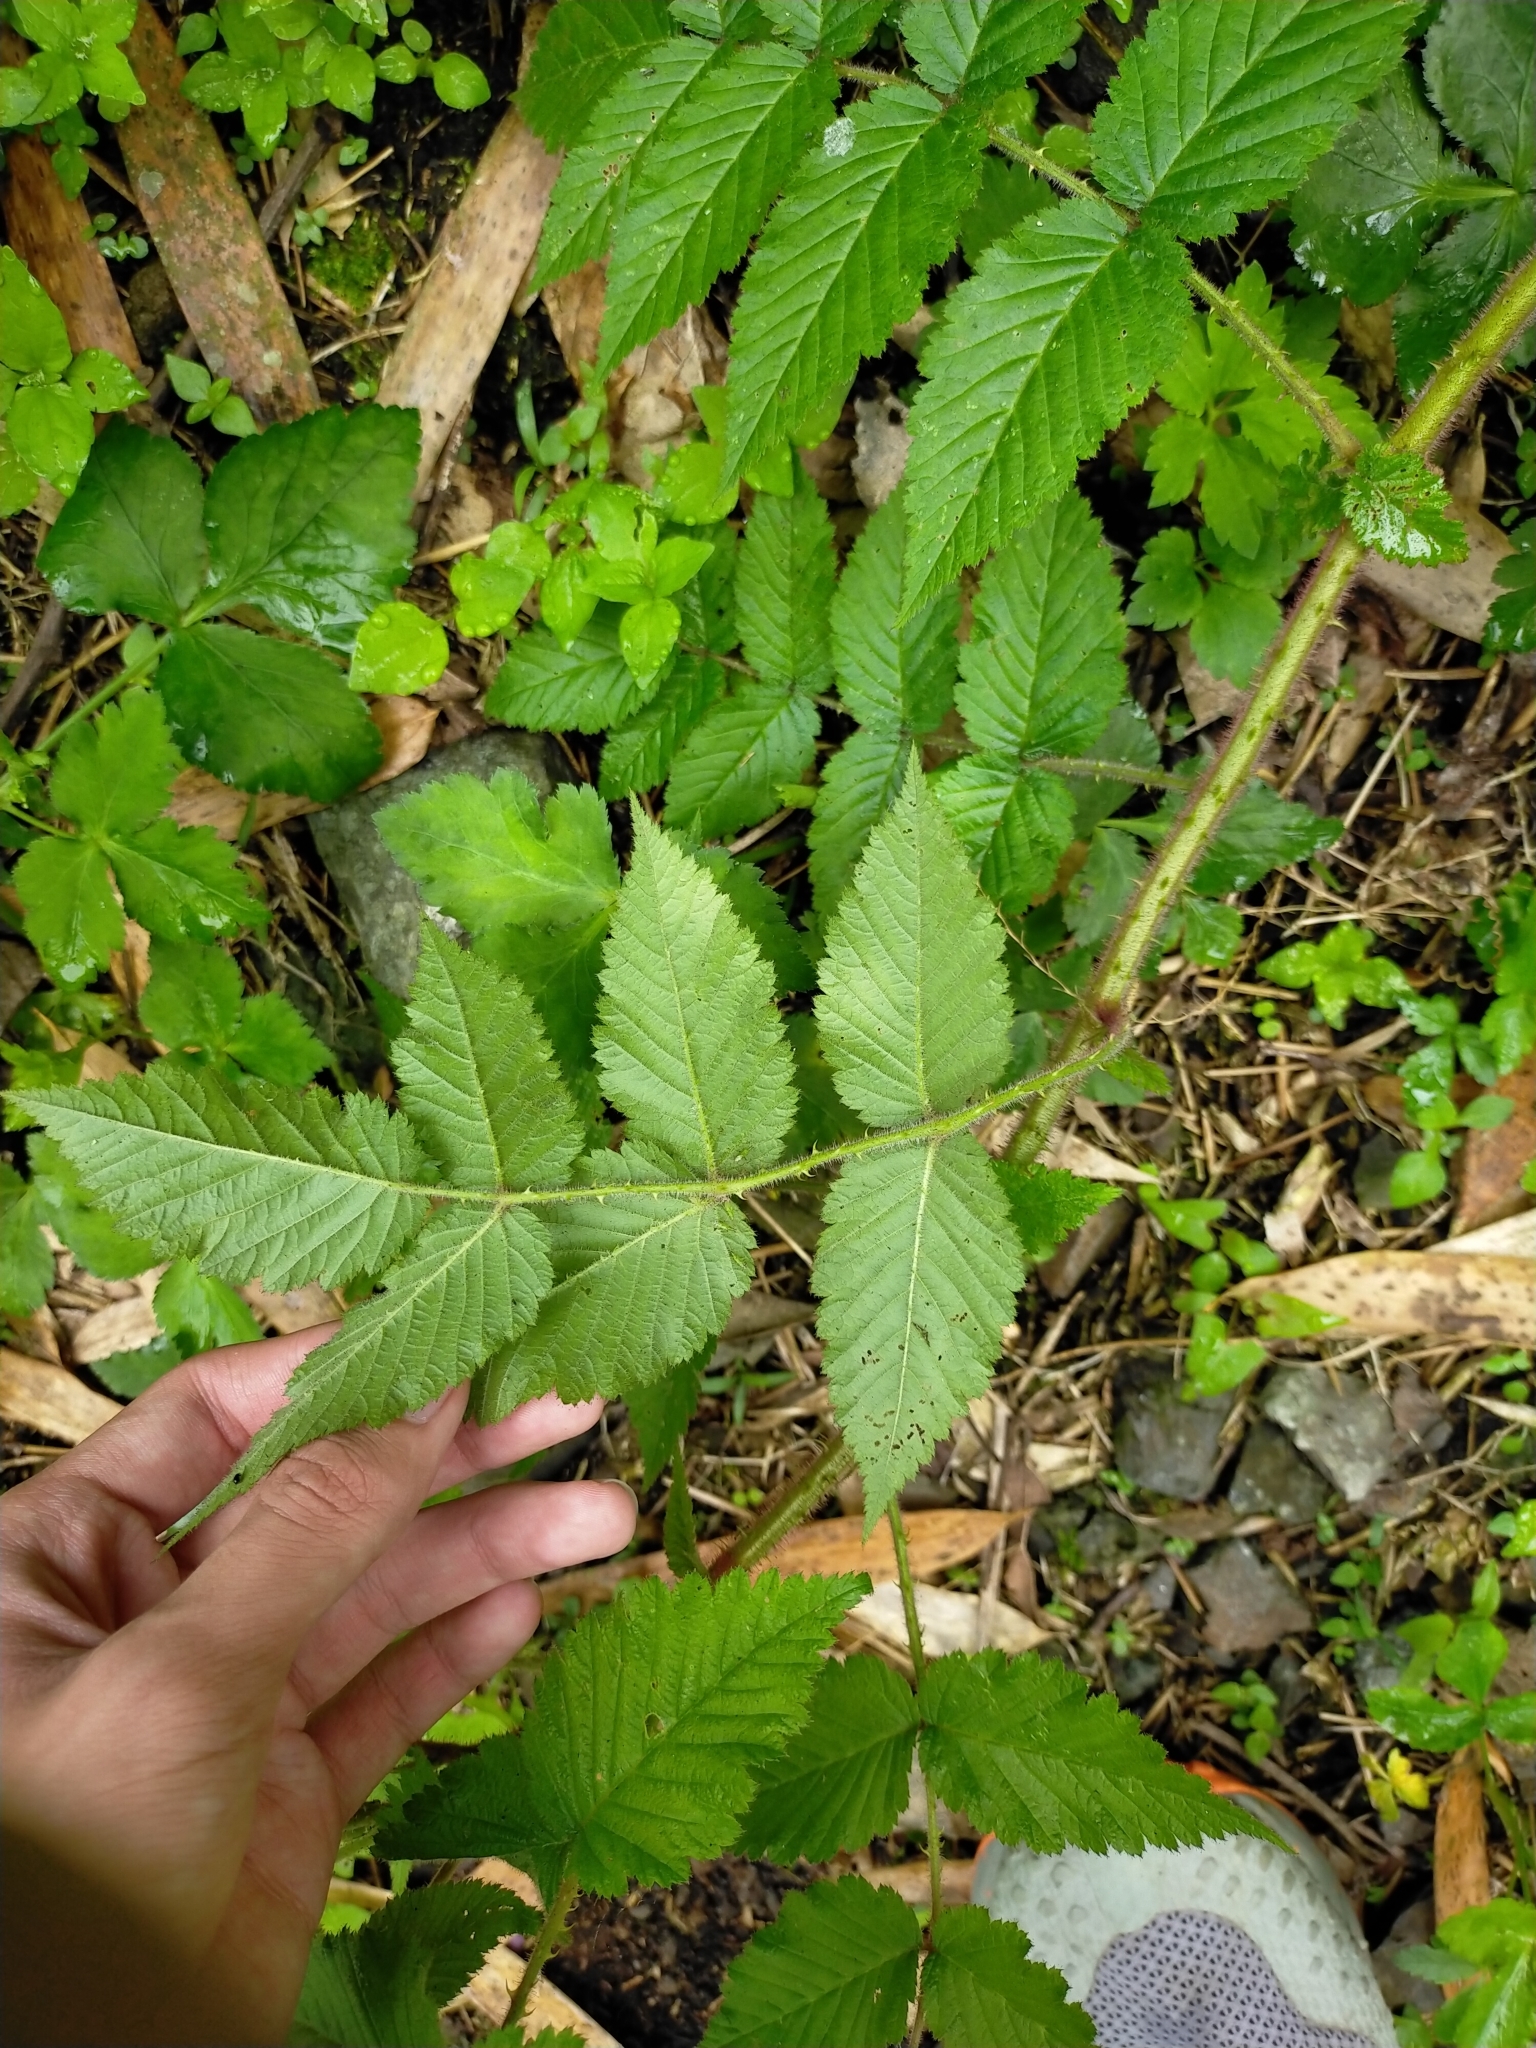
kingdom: Plantae
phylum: Tracheophyta
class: Magnoliopsida
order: Rosales
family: Rosaceae
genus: Rubus
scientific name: Rubus croceacanthus
